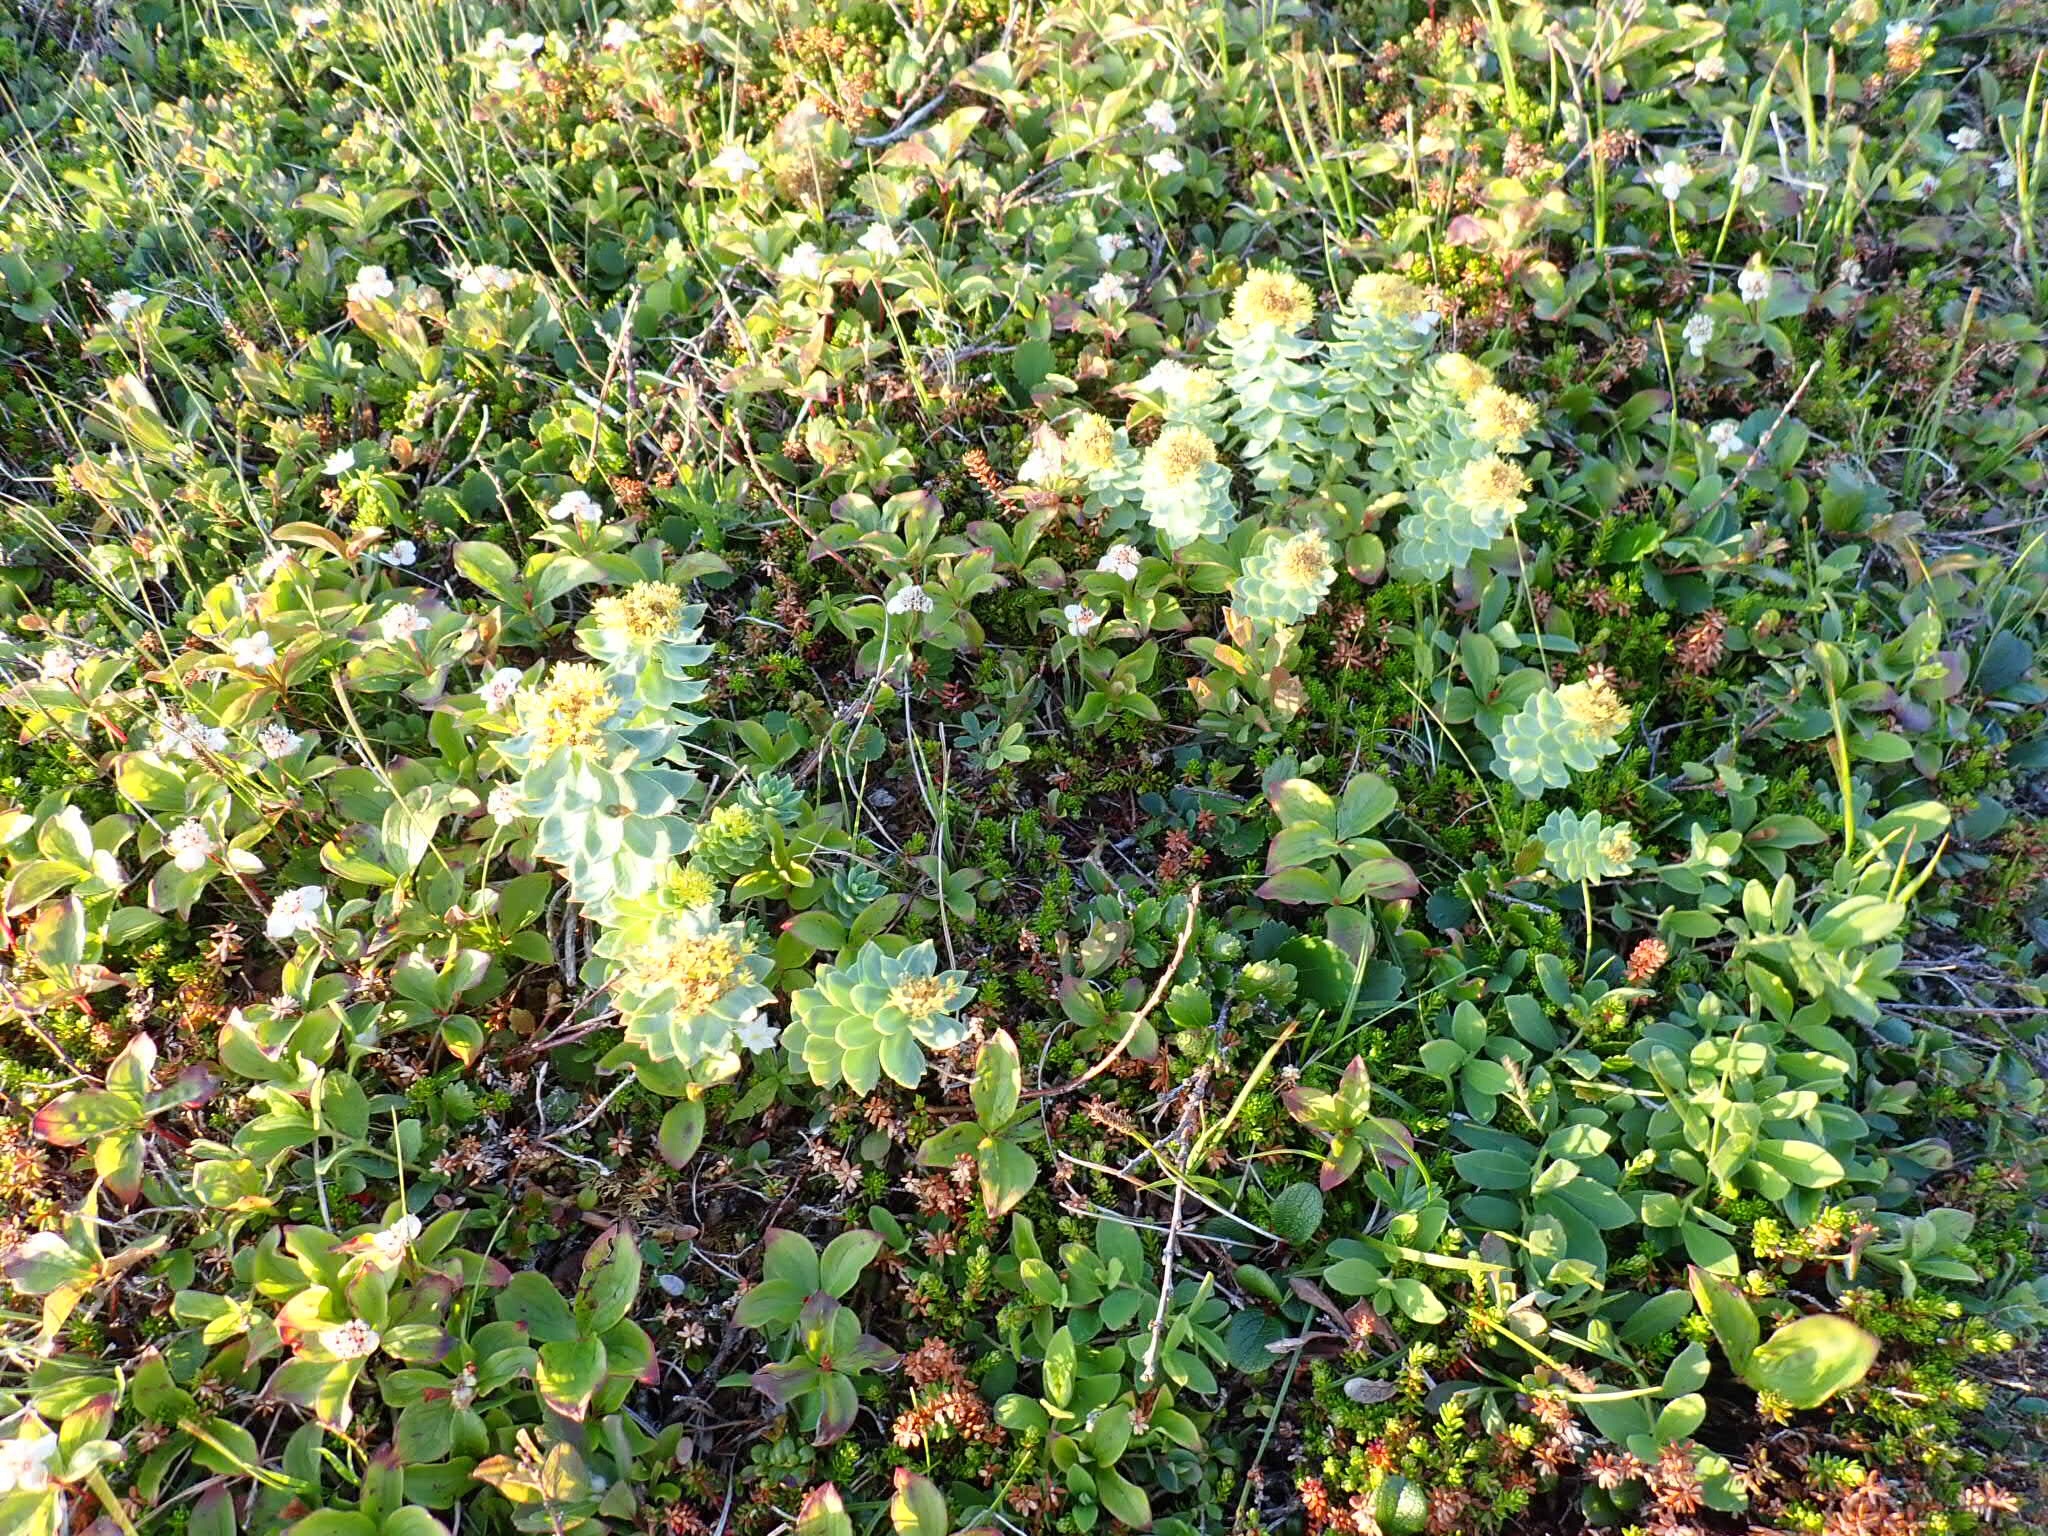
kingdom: Plantae
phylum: Tracheophyta
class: Magnoliopsida
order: Saxifragales
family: Crassulaceae
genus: Rhodiola
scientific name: Rhodiola rosea
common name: Roseroot
